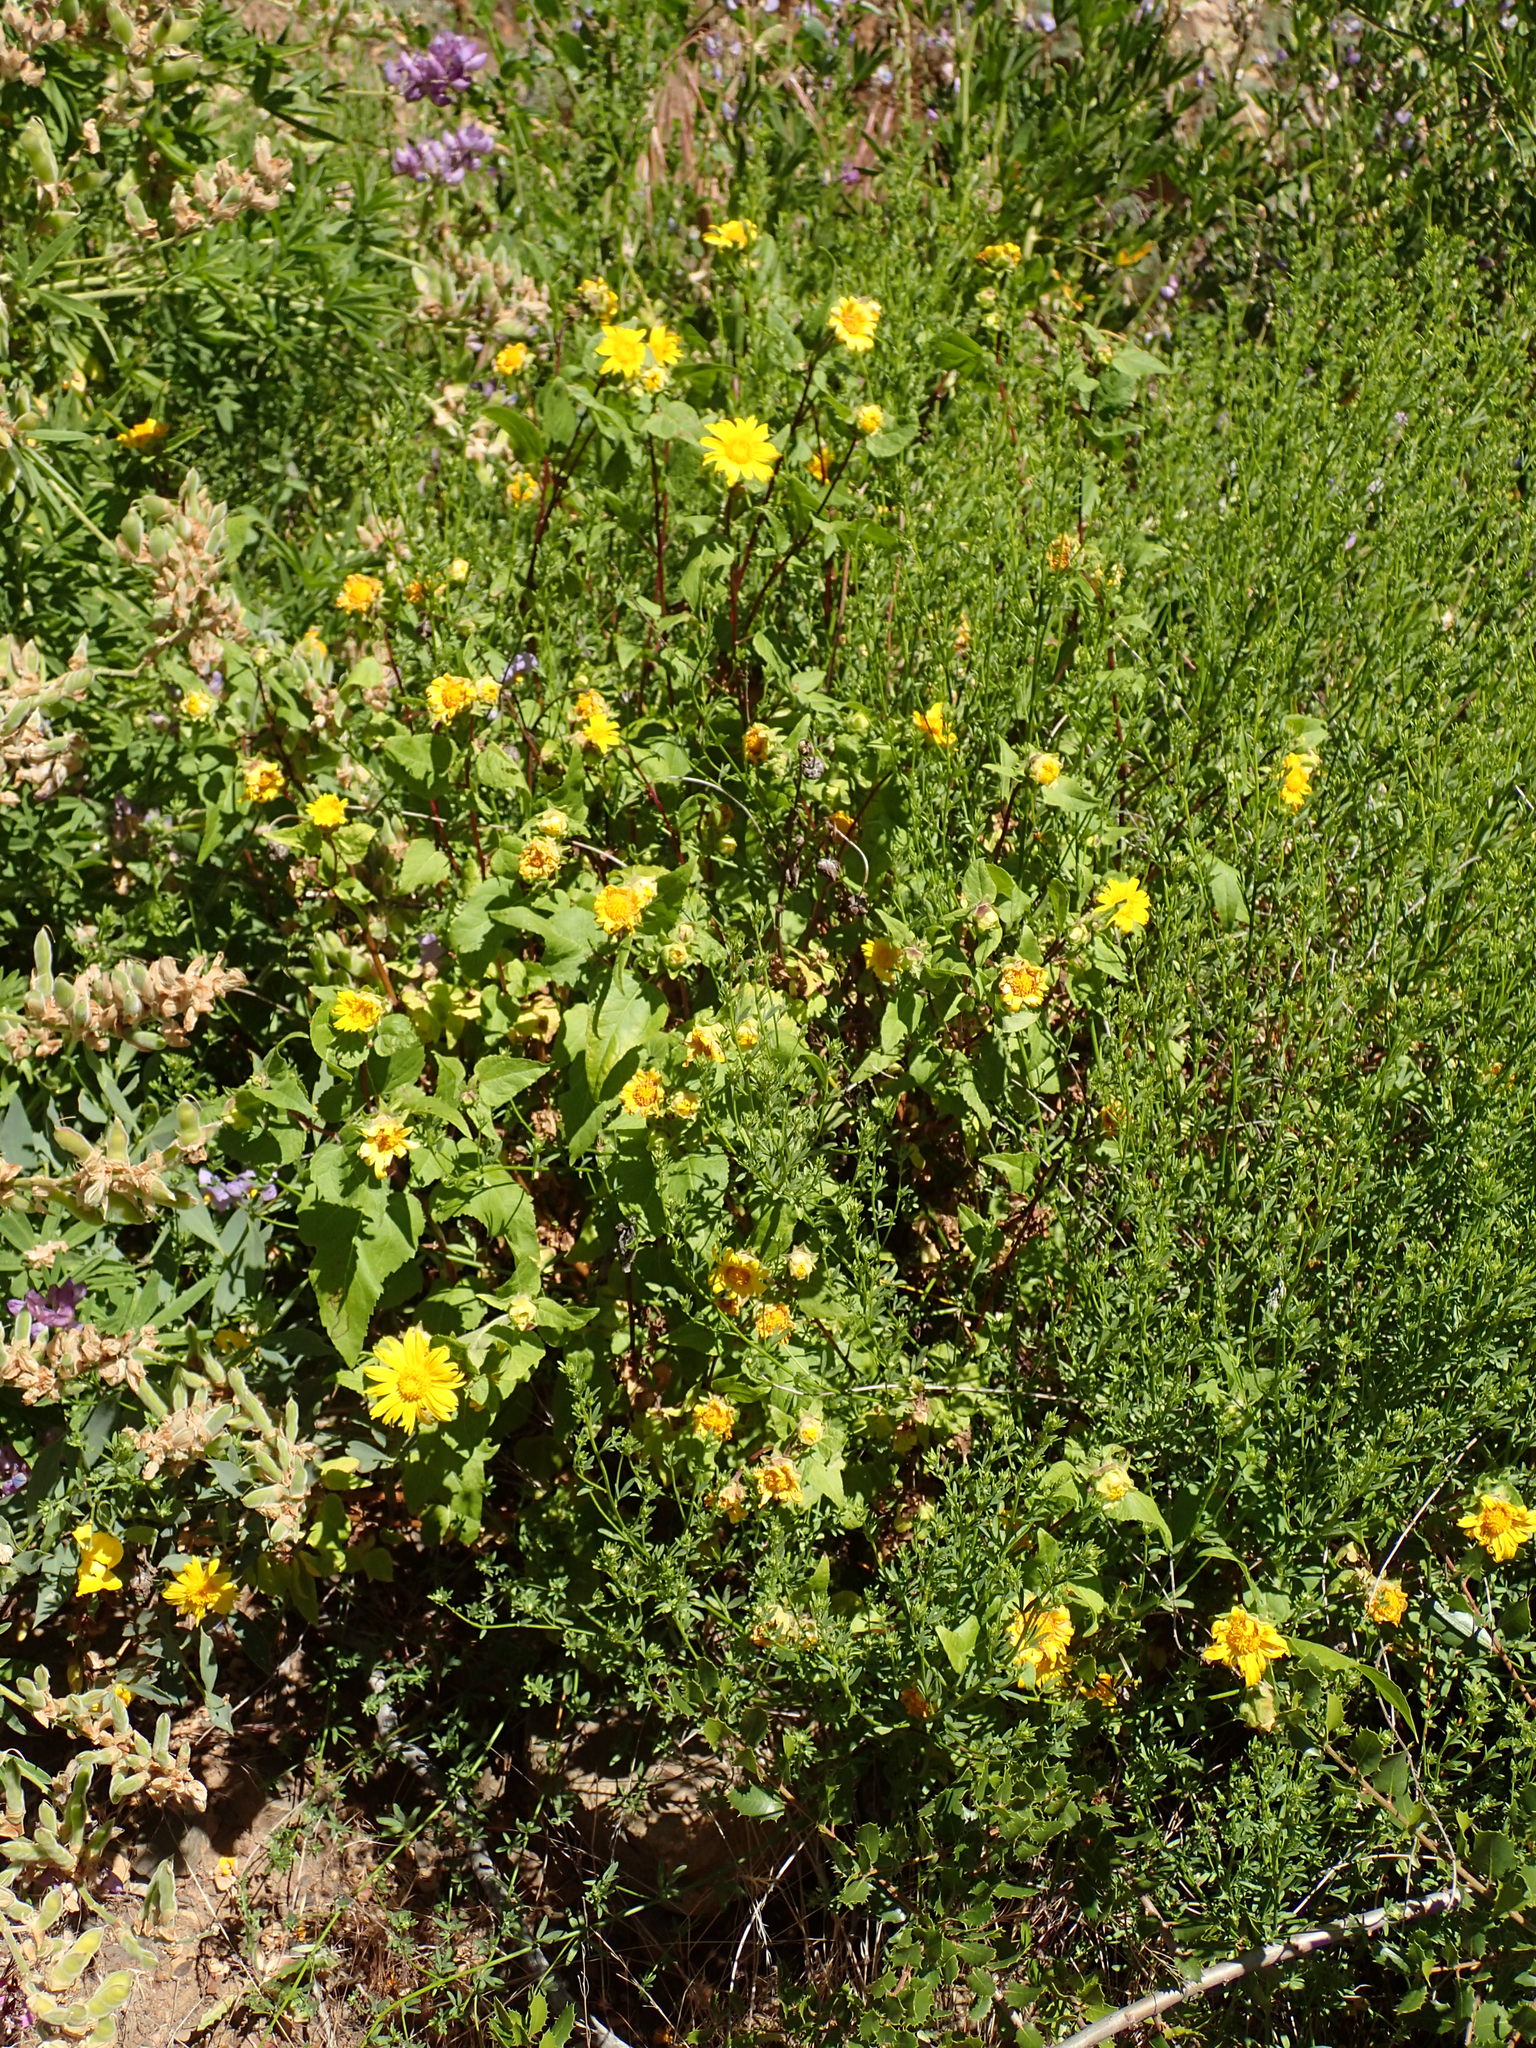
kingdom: Plantae
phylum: Tracheophyta
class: Magnoliopsida
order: Asterales
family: Asteraceae
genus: Venegasia
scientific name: Venegasia carpesioides
